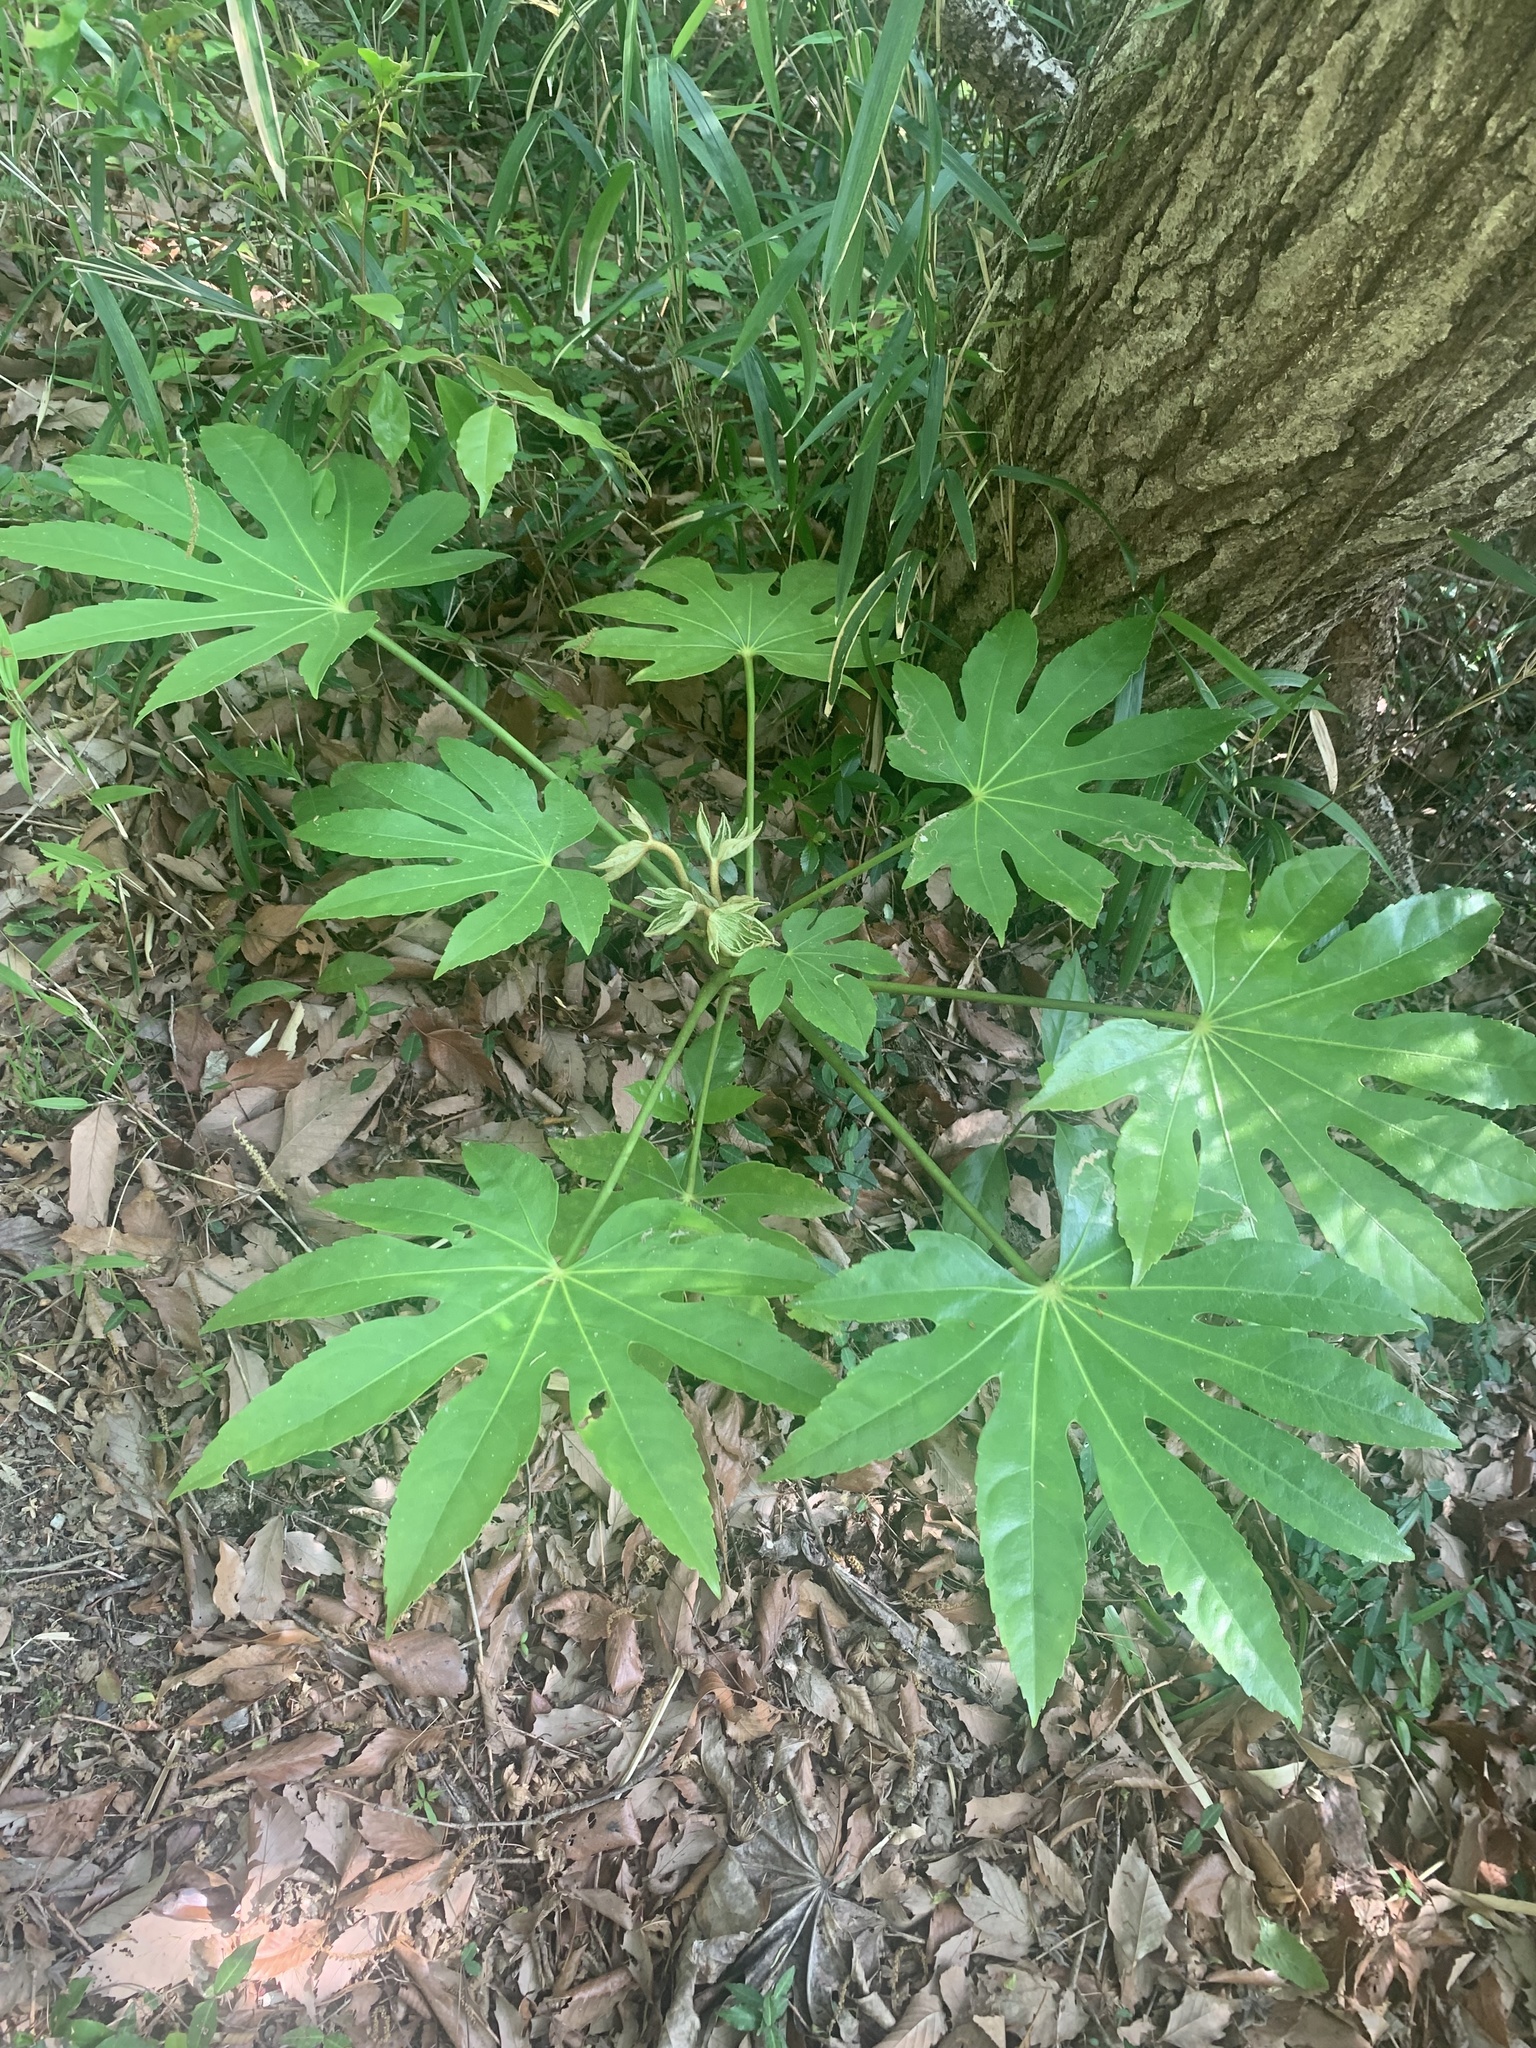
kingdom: Plantae
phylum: Tracheophyta
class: Magnoliopsida
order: Apiales
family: Araliaceae
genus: Fatsia
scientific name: Fatsia japonica
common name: Fatsia
